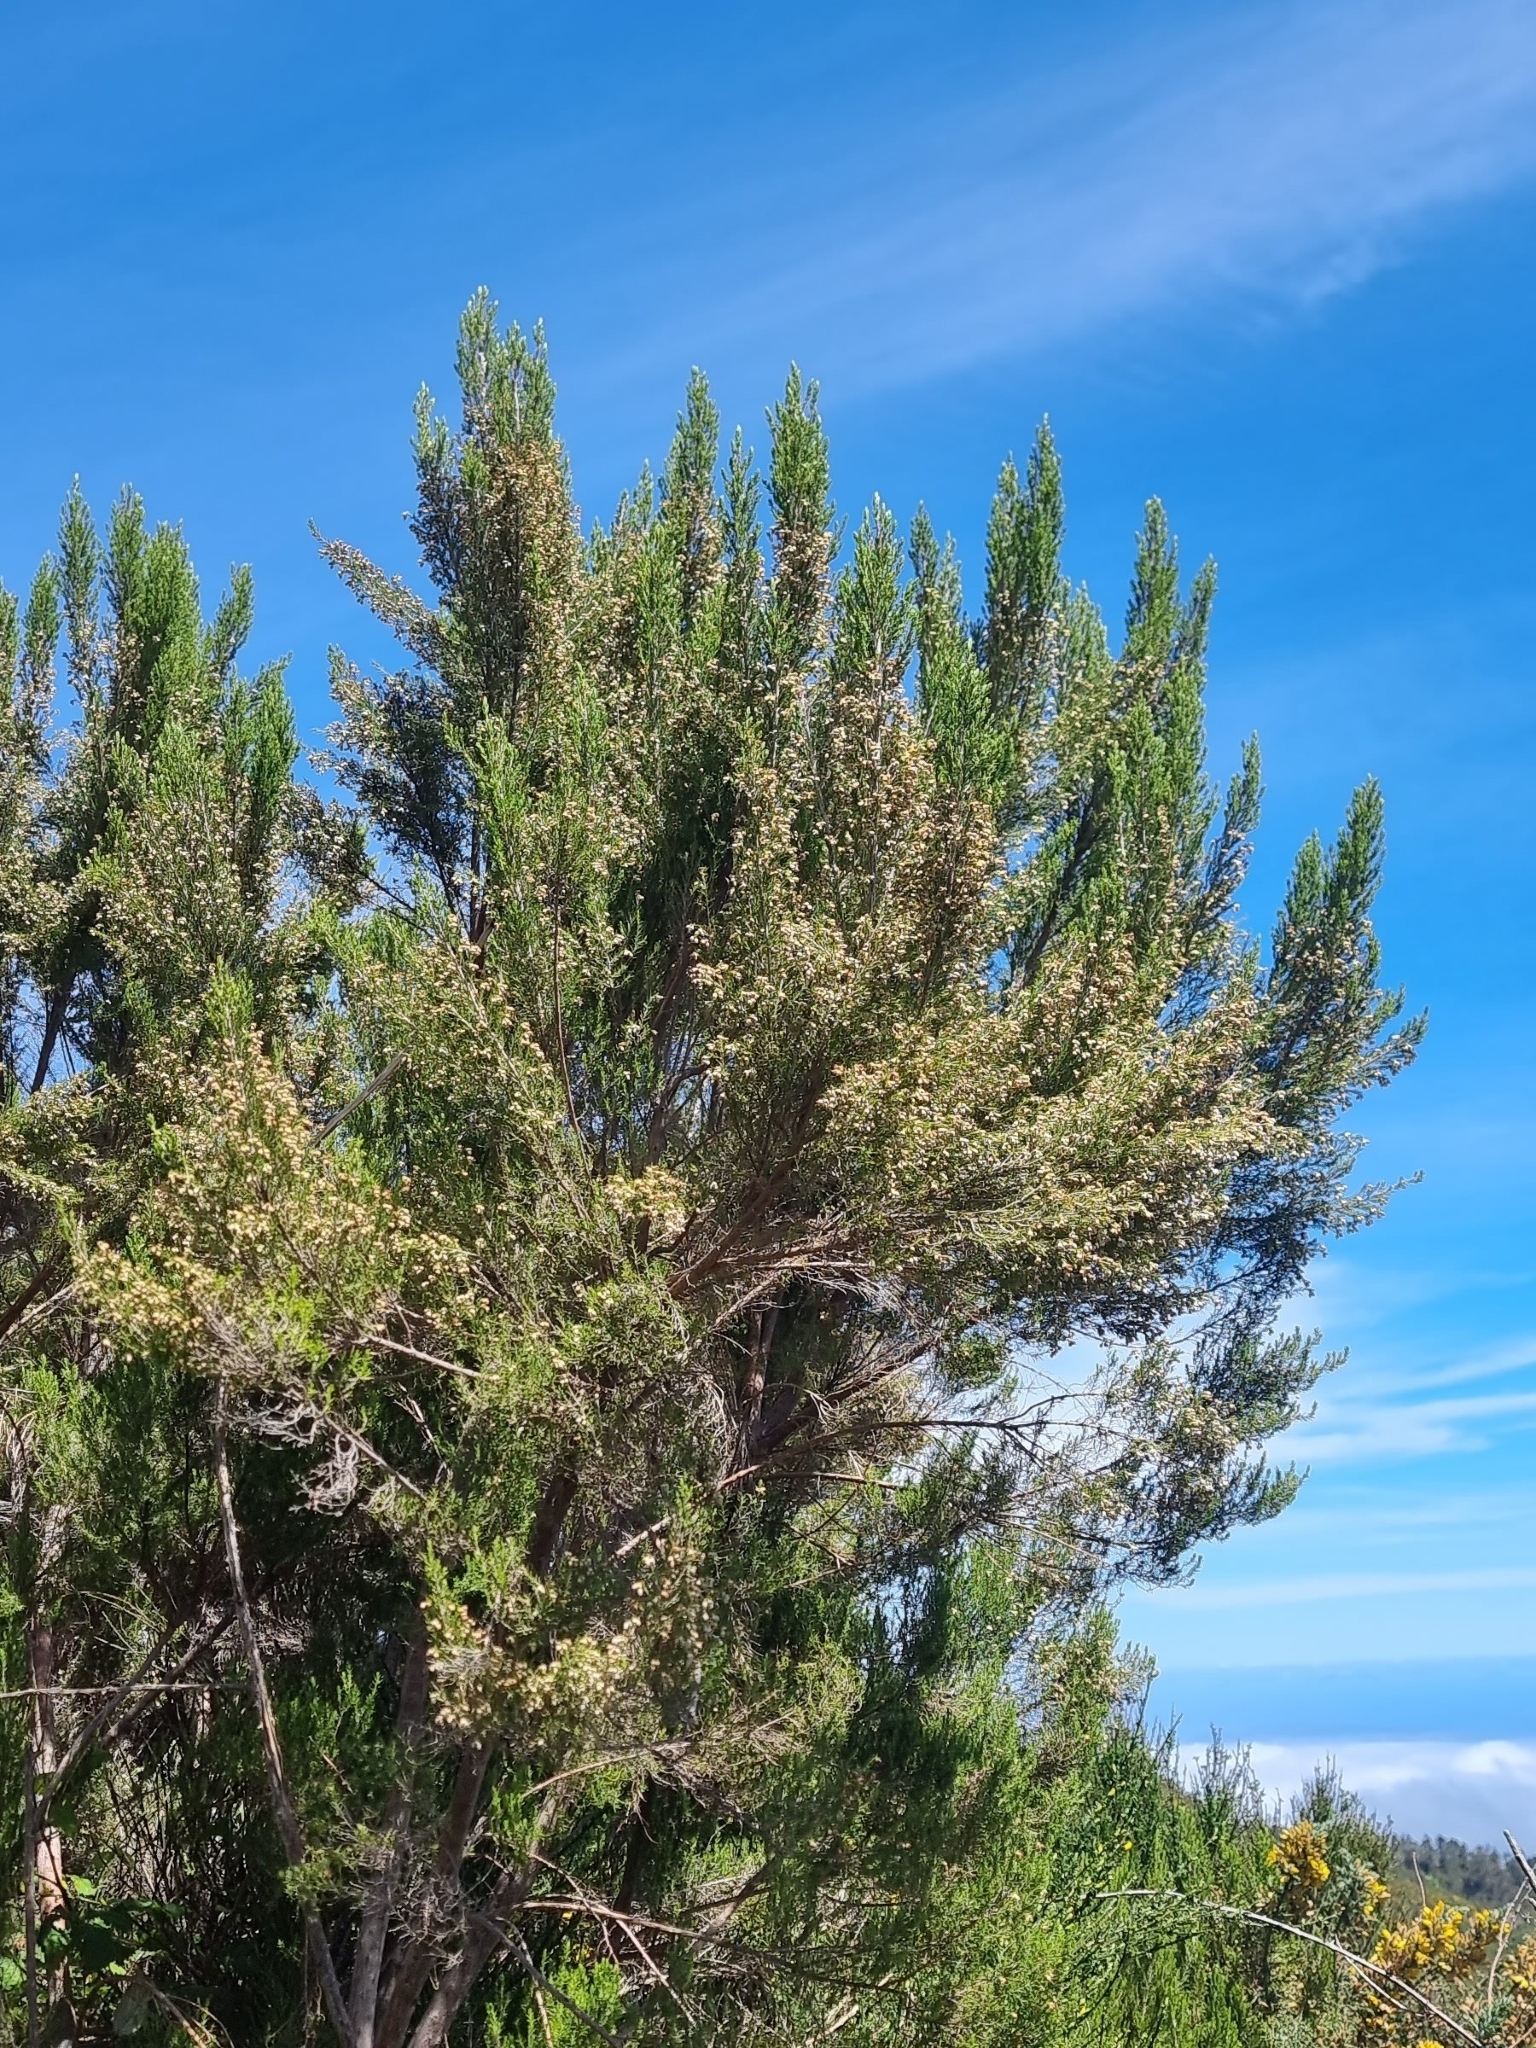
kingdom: Plantae
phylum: Tracheophyta
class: Magnoliopsida
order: Ericales
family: Ericaceae
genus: Erica
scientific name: Erica canariensis
